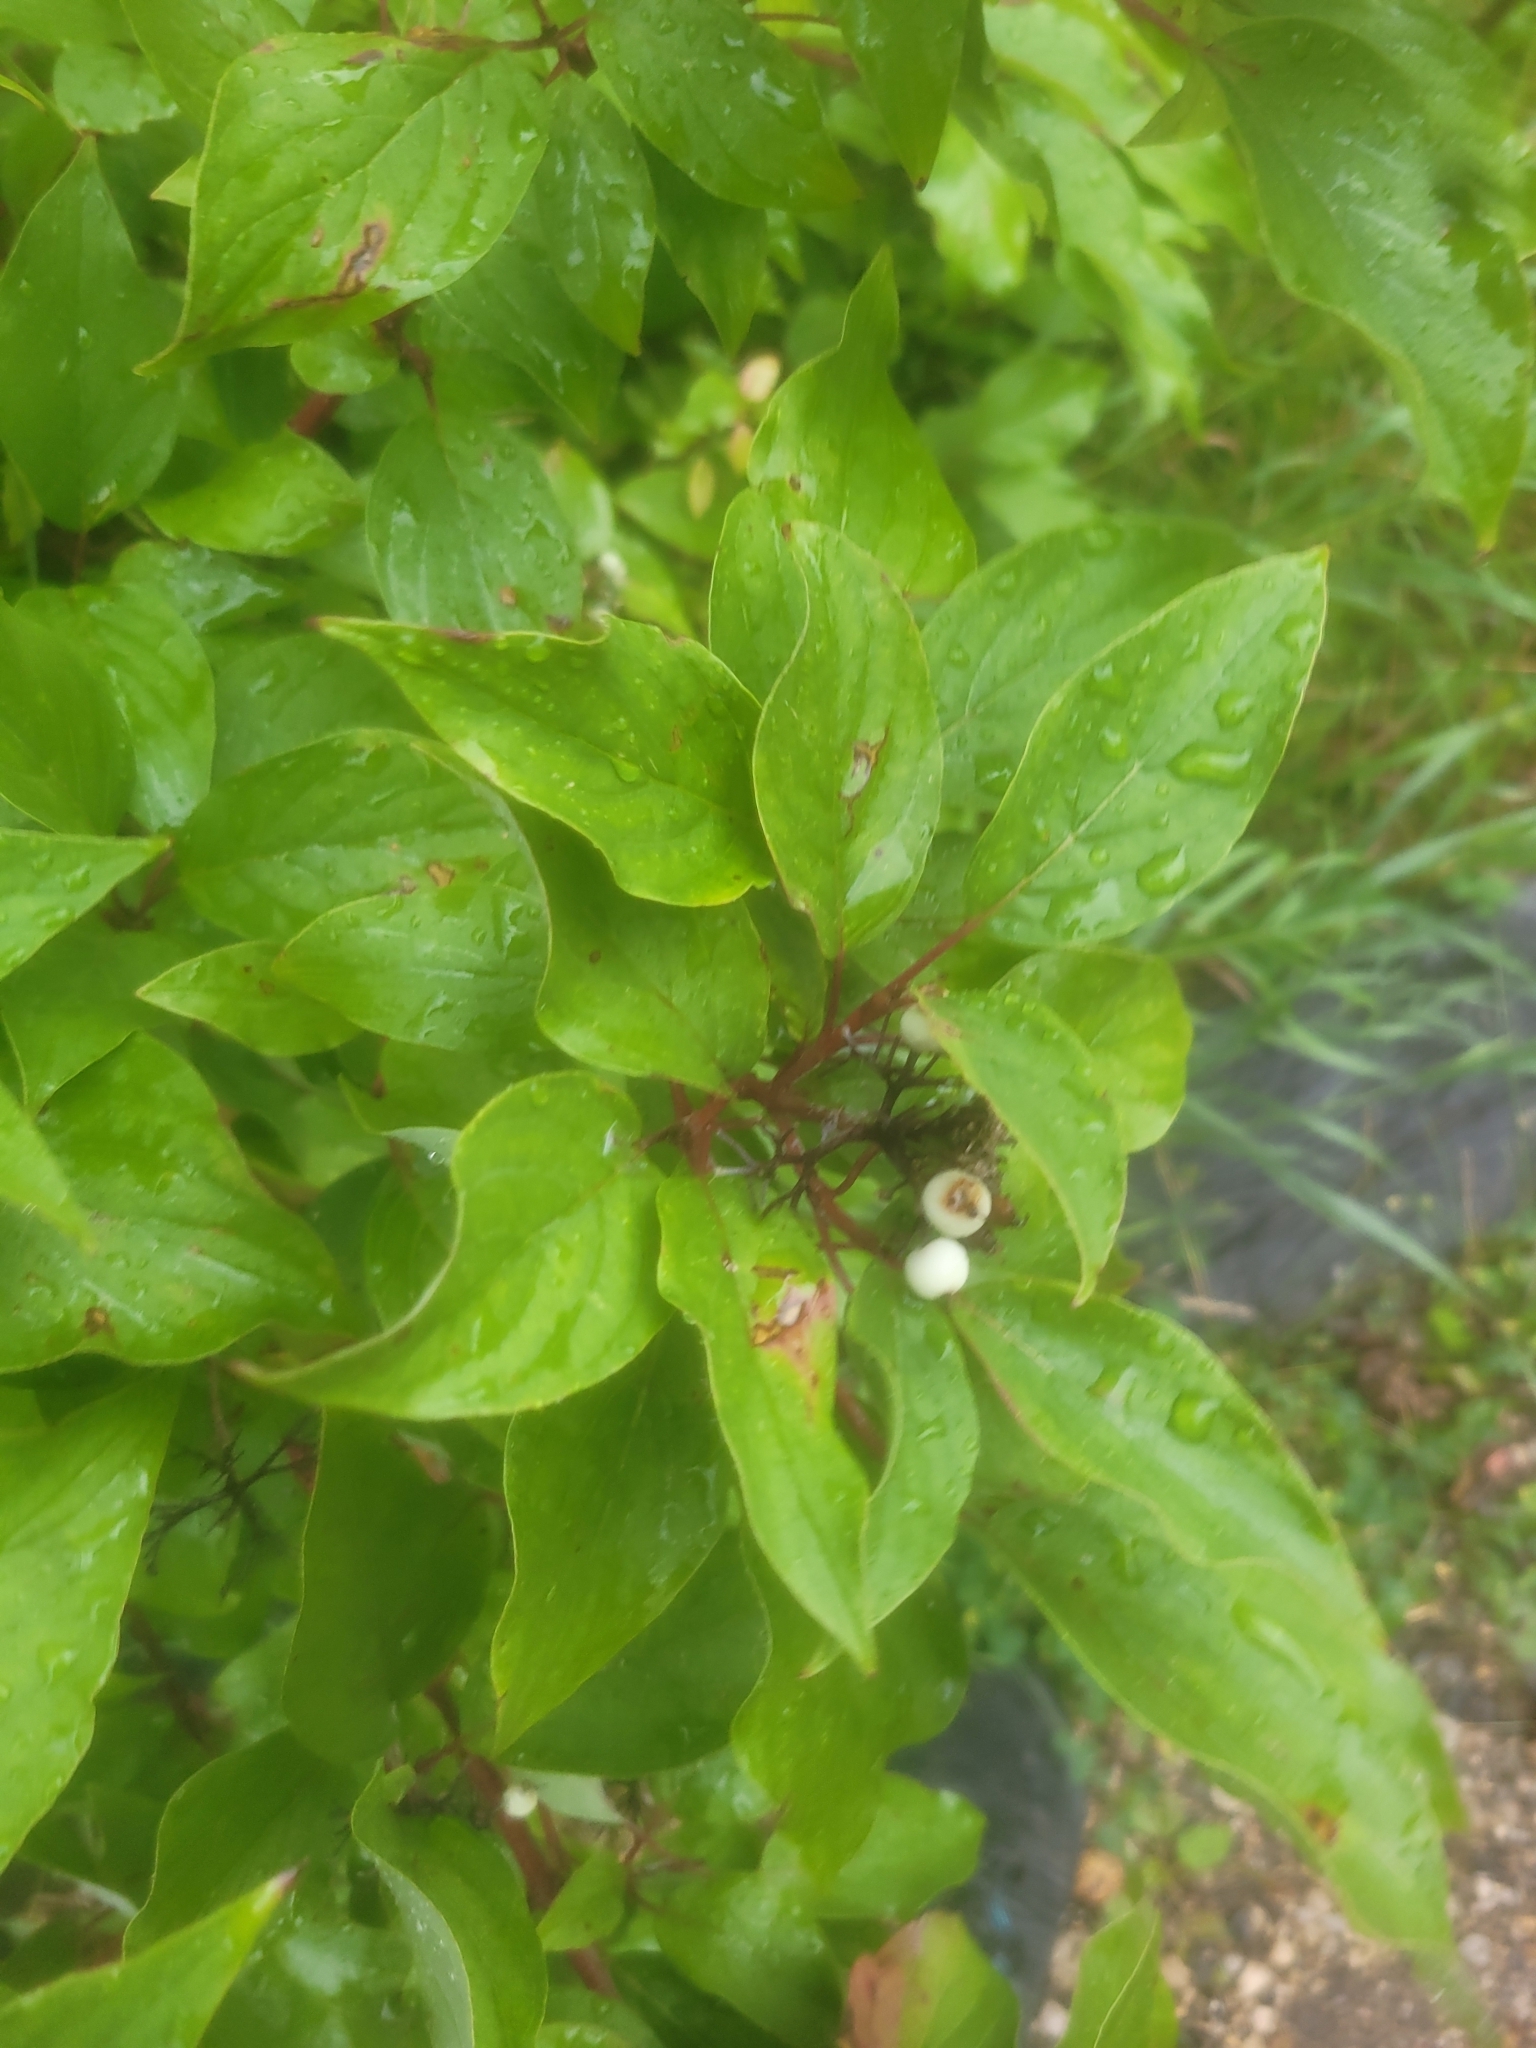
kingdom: Plantae
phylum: Tracheophyta
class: Magnoliopsida
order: Cornales
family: Cornaceae
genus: Cornus
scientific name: Cornus sericea
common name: Red-osier dogwood
